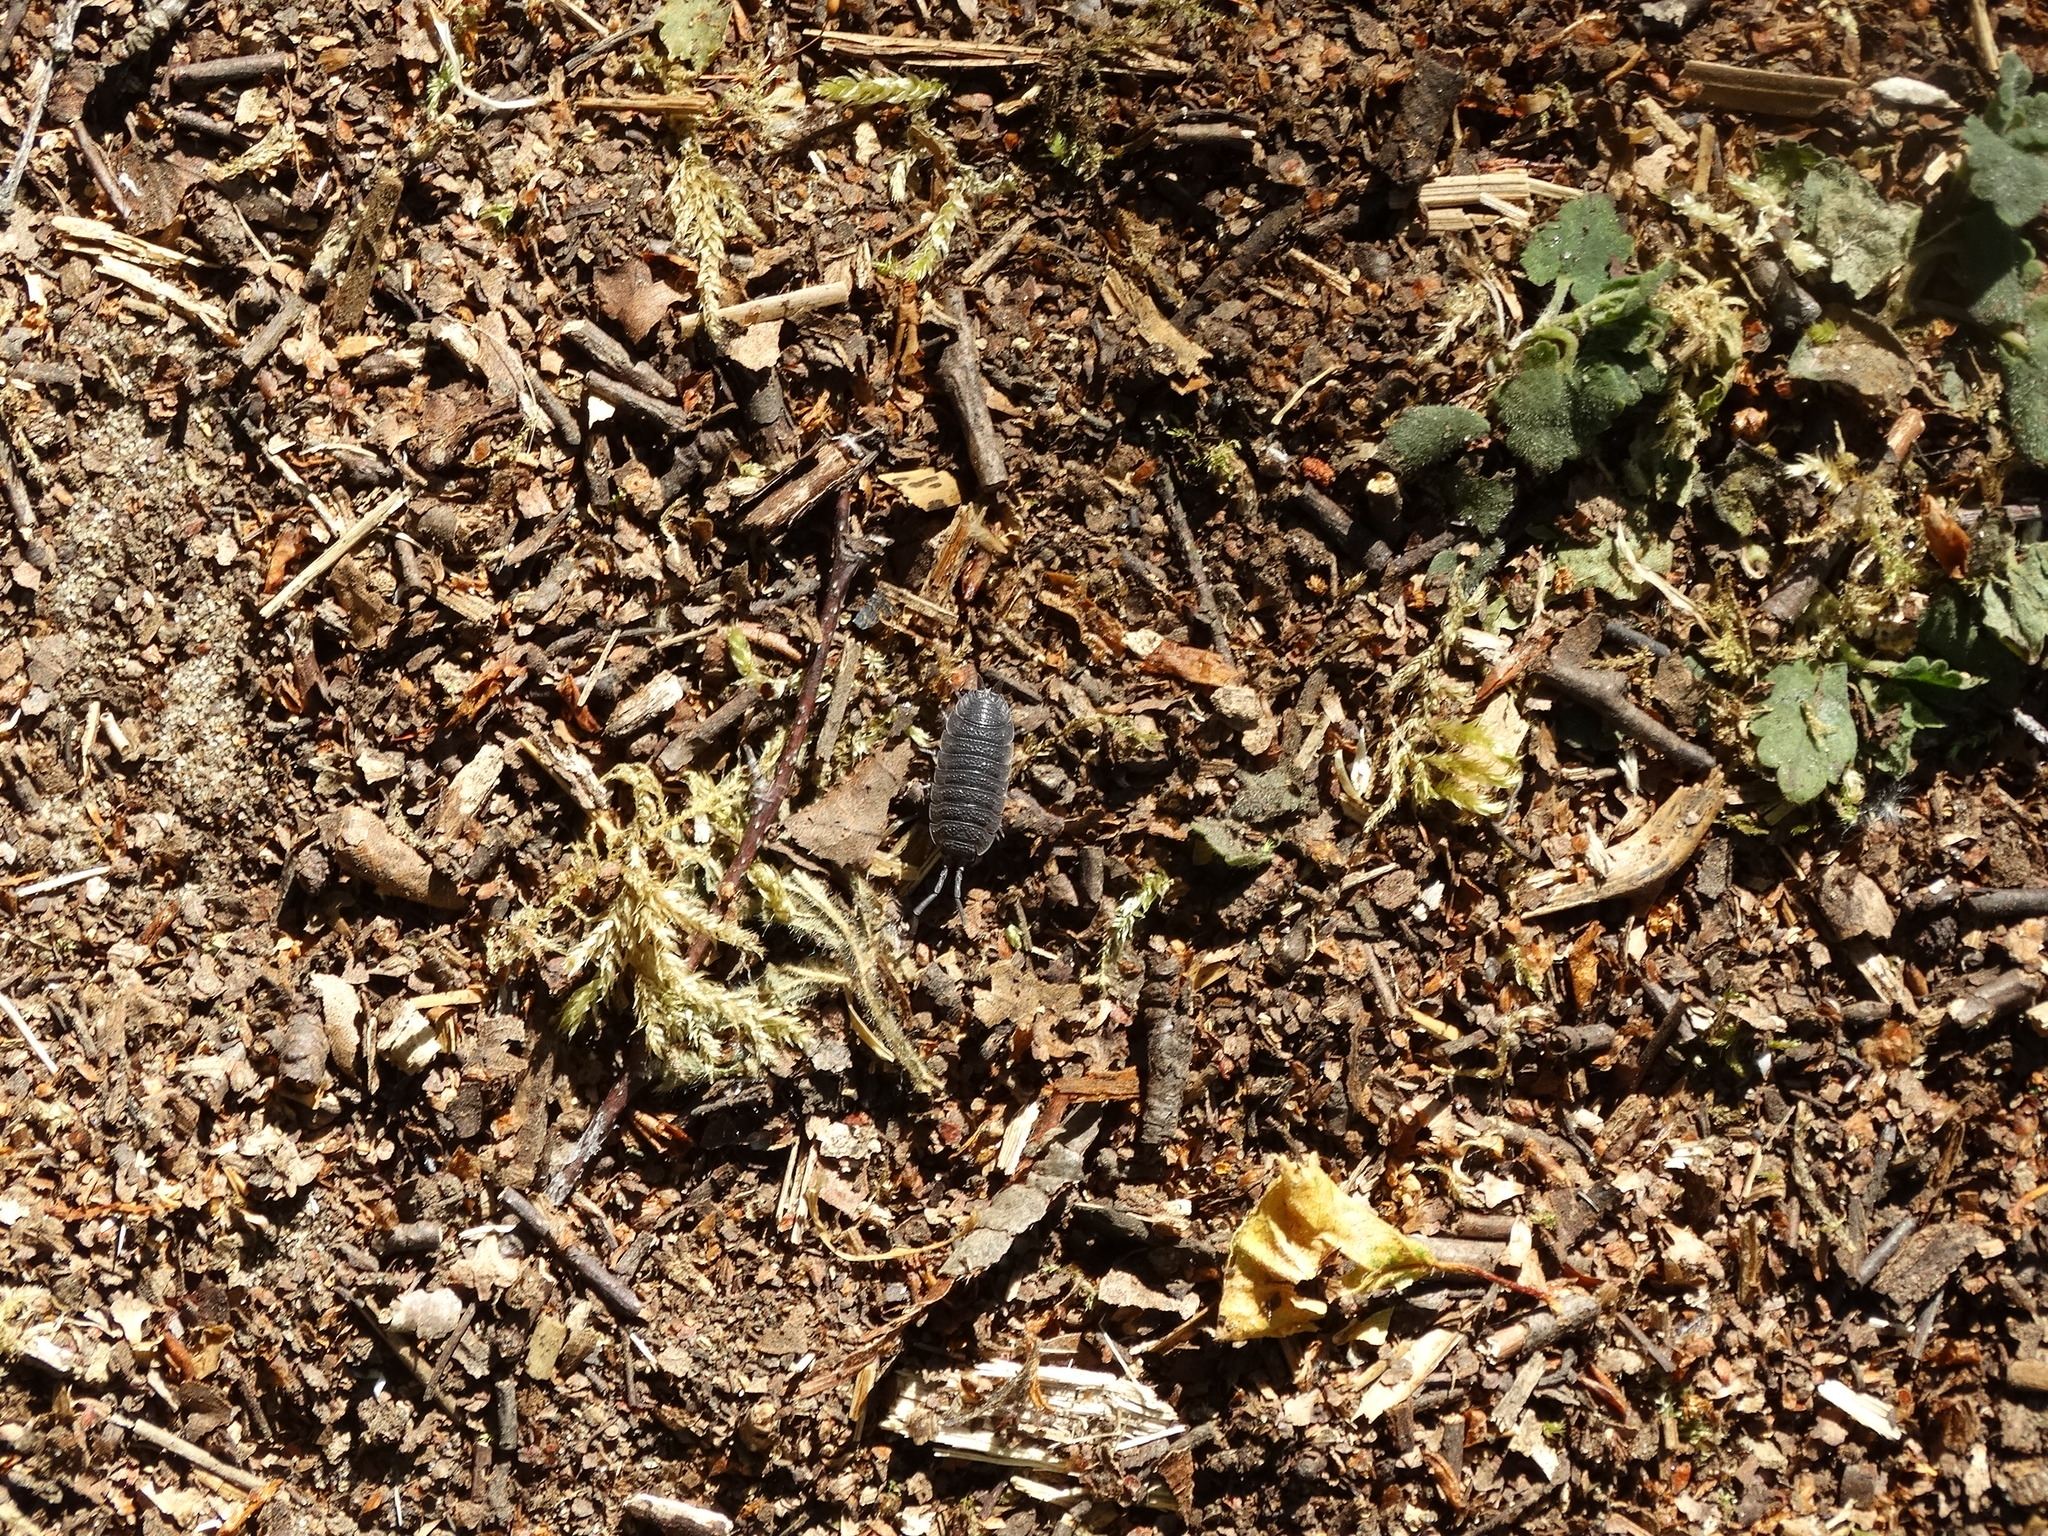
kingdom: Animalia
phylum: Arthropoda
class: Malacostraca
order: Isopoda
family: Porcellionidae
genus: Porcellio
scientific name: Porcellio scaber
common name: Common rough woodlouse
